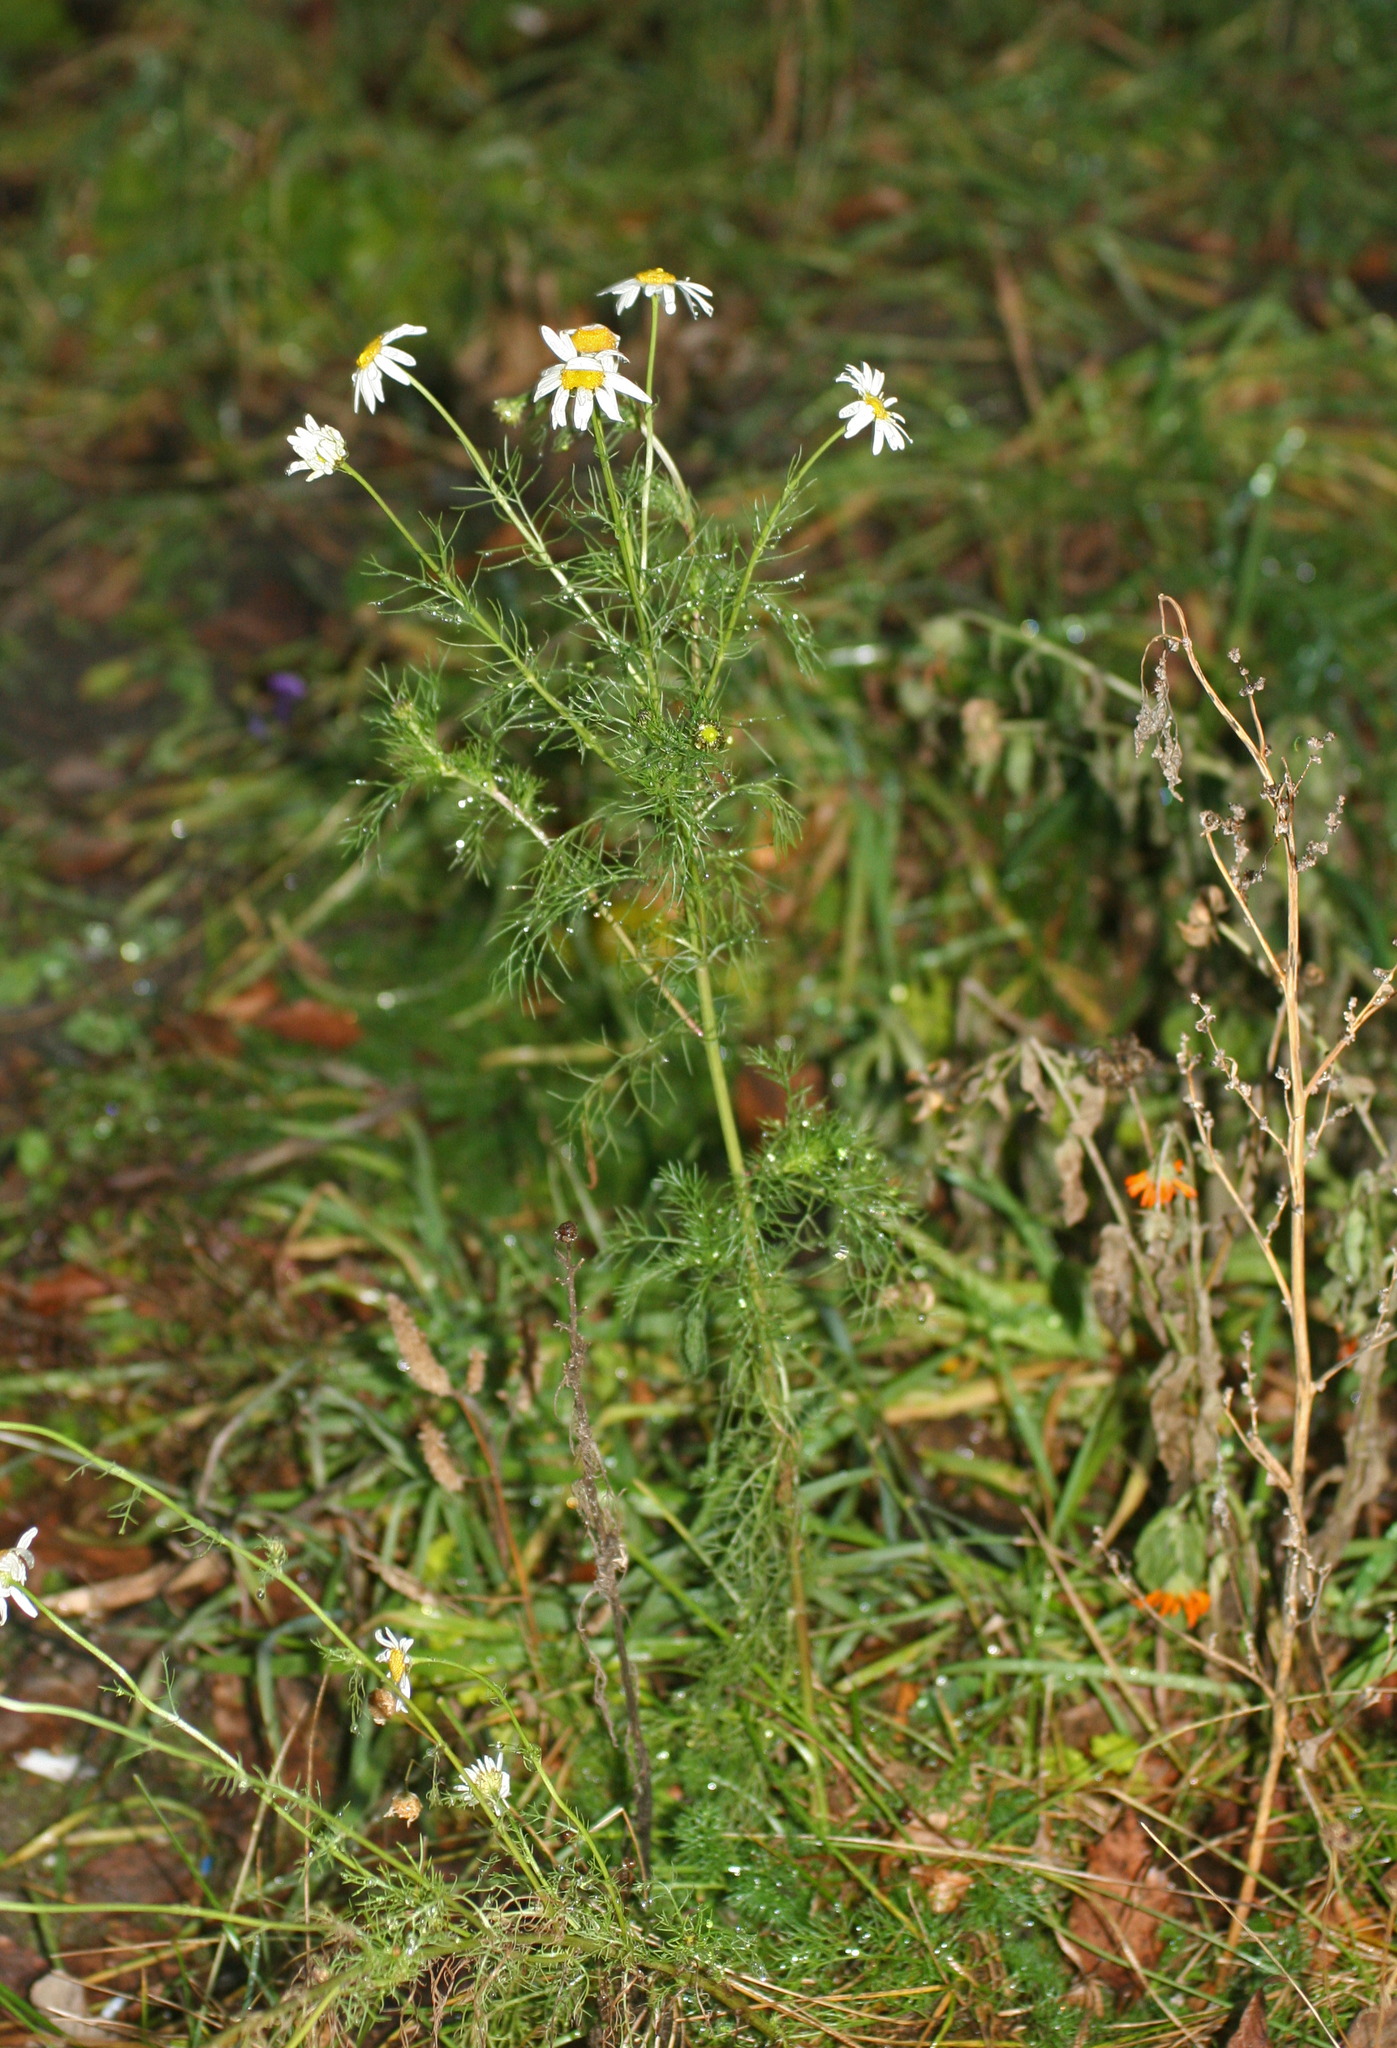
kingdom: Plantae
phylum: Tracheophyta
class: Magnoliopsida
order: Asterales
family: Asteraceae
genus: Tripleurospermum
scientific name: Tripleurospermum inodorum
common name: Scentless mayweed
